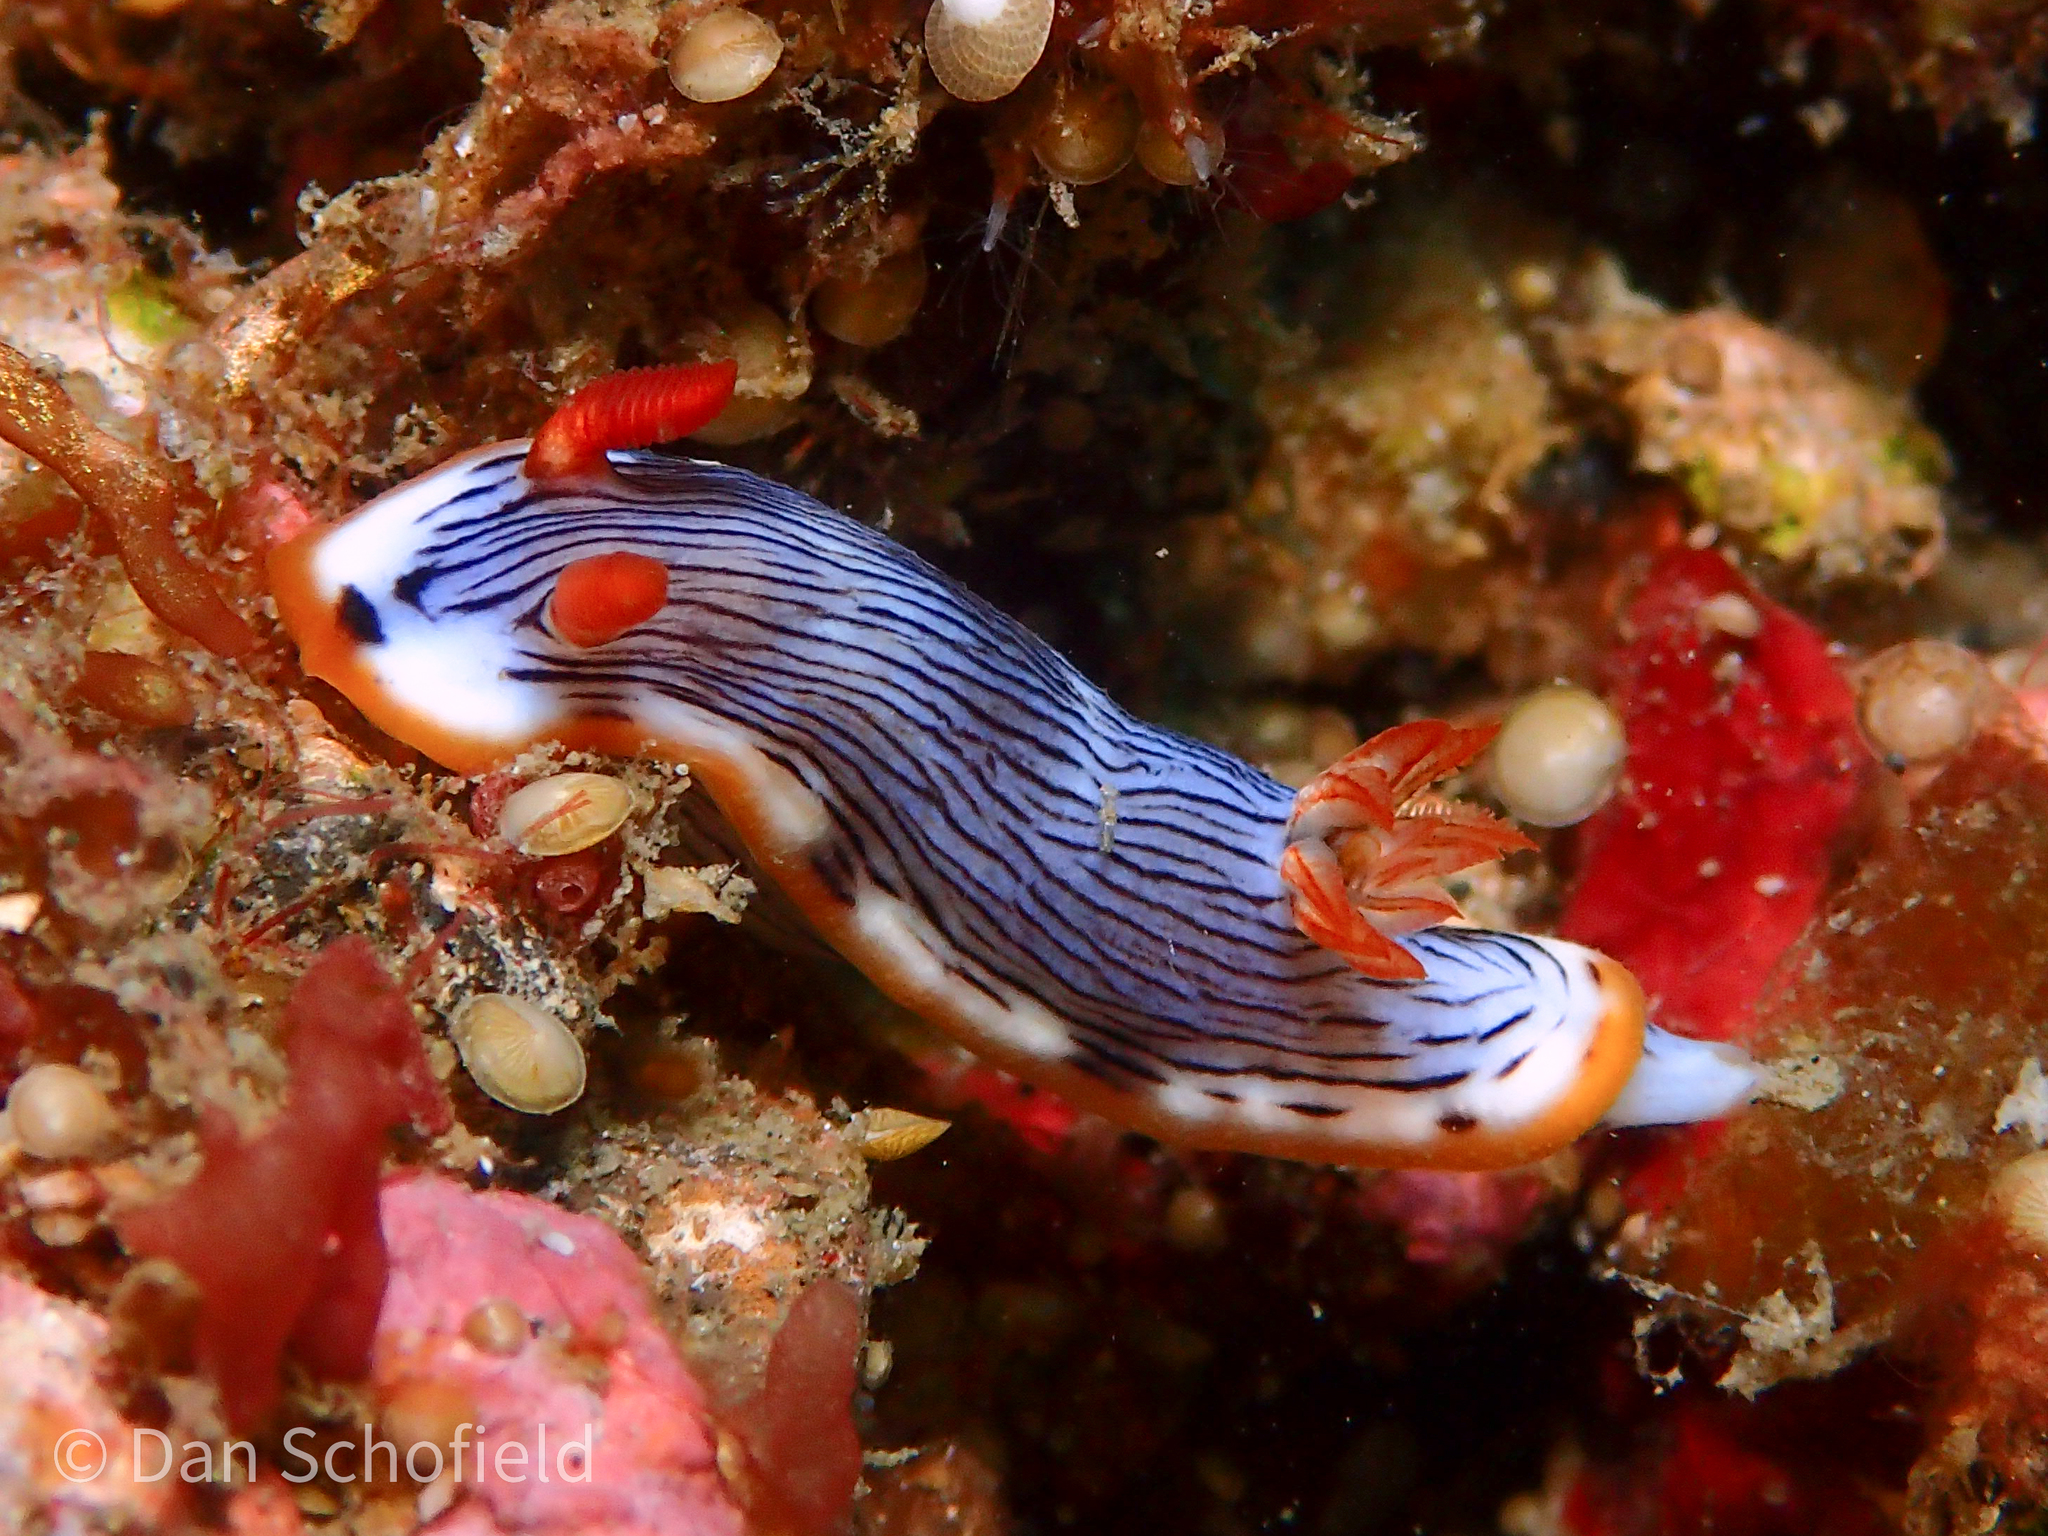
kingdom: Animalia
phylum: Mollusca
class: Gastropoda
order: Nudibranchia
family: Chromodorididae
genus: Chromodoris
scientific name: Chromodoris quagga
